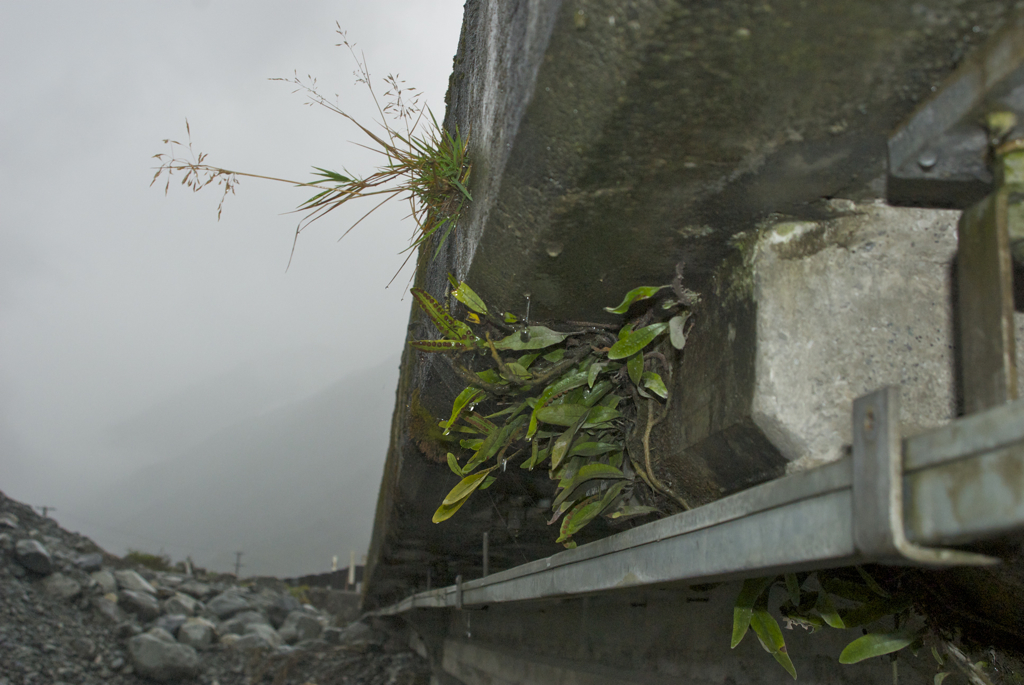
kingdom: Plantae
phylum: Tracheophyta
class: Polypodiopsida
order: Polypodiales
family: Polypodiaceae
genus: Pyrrosia
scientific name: Pyrrosia eleagnifolia
